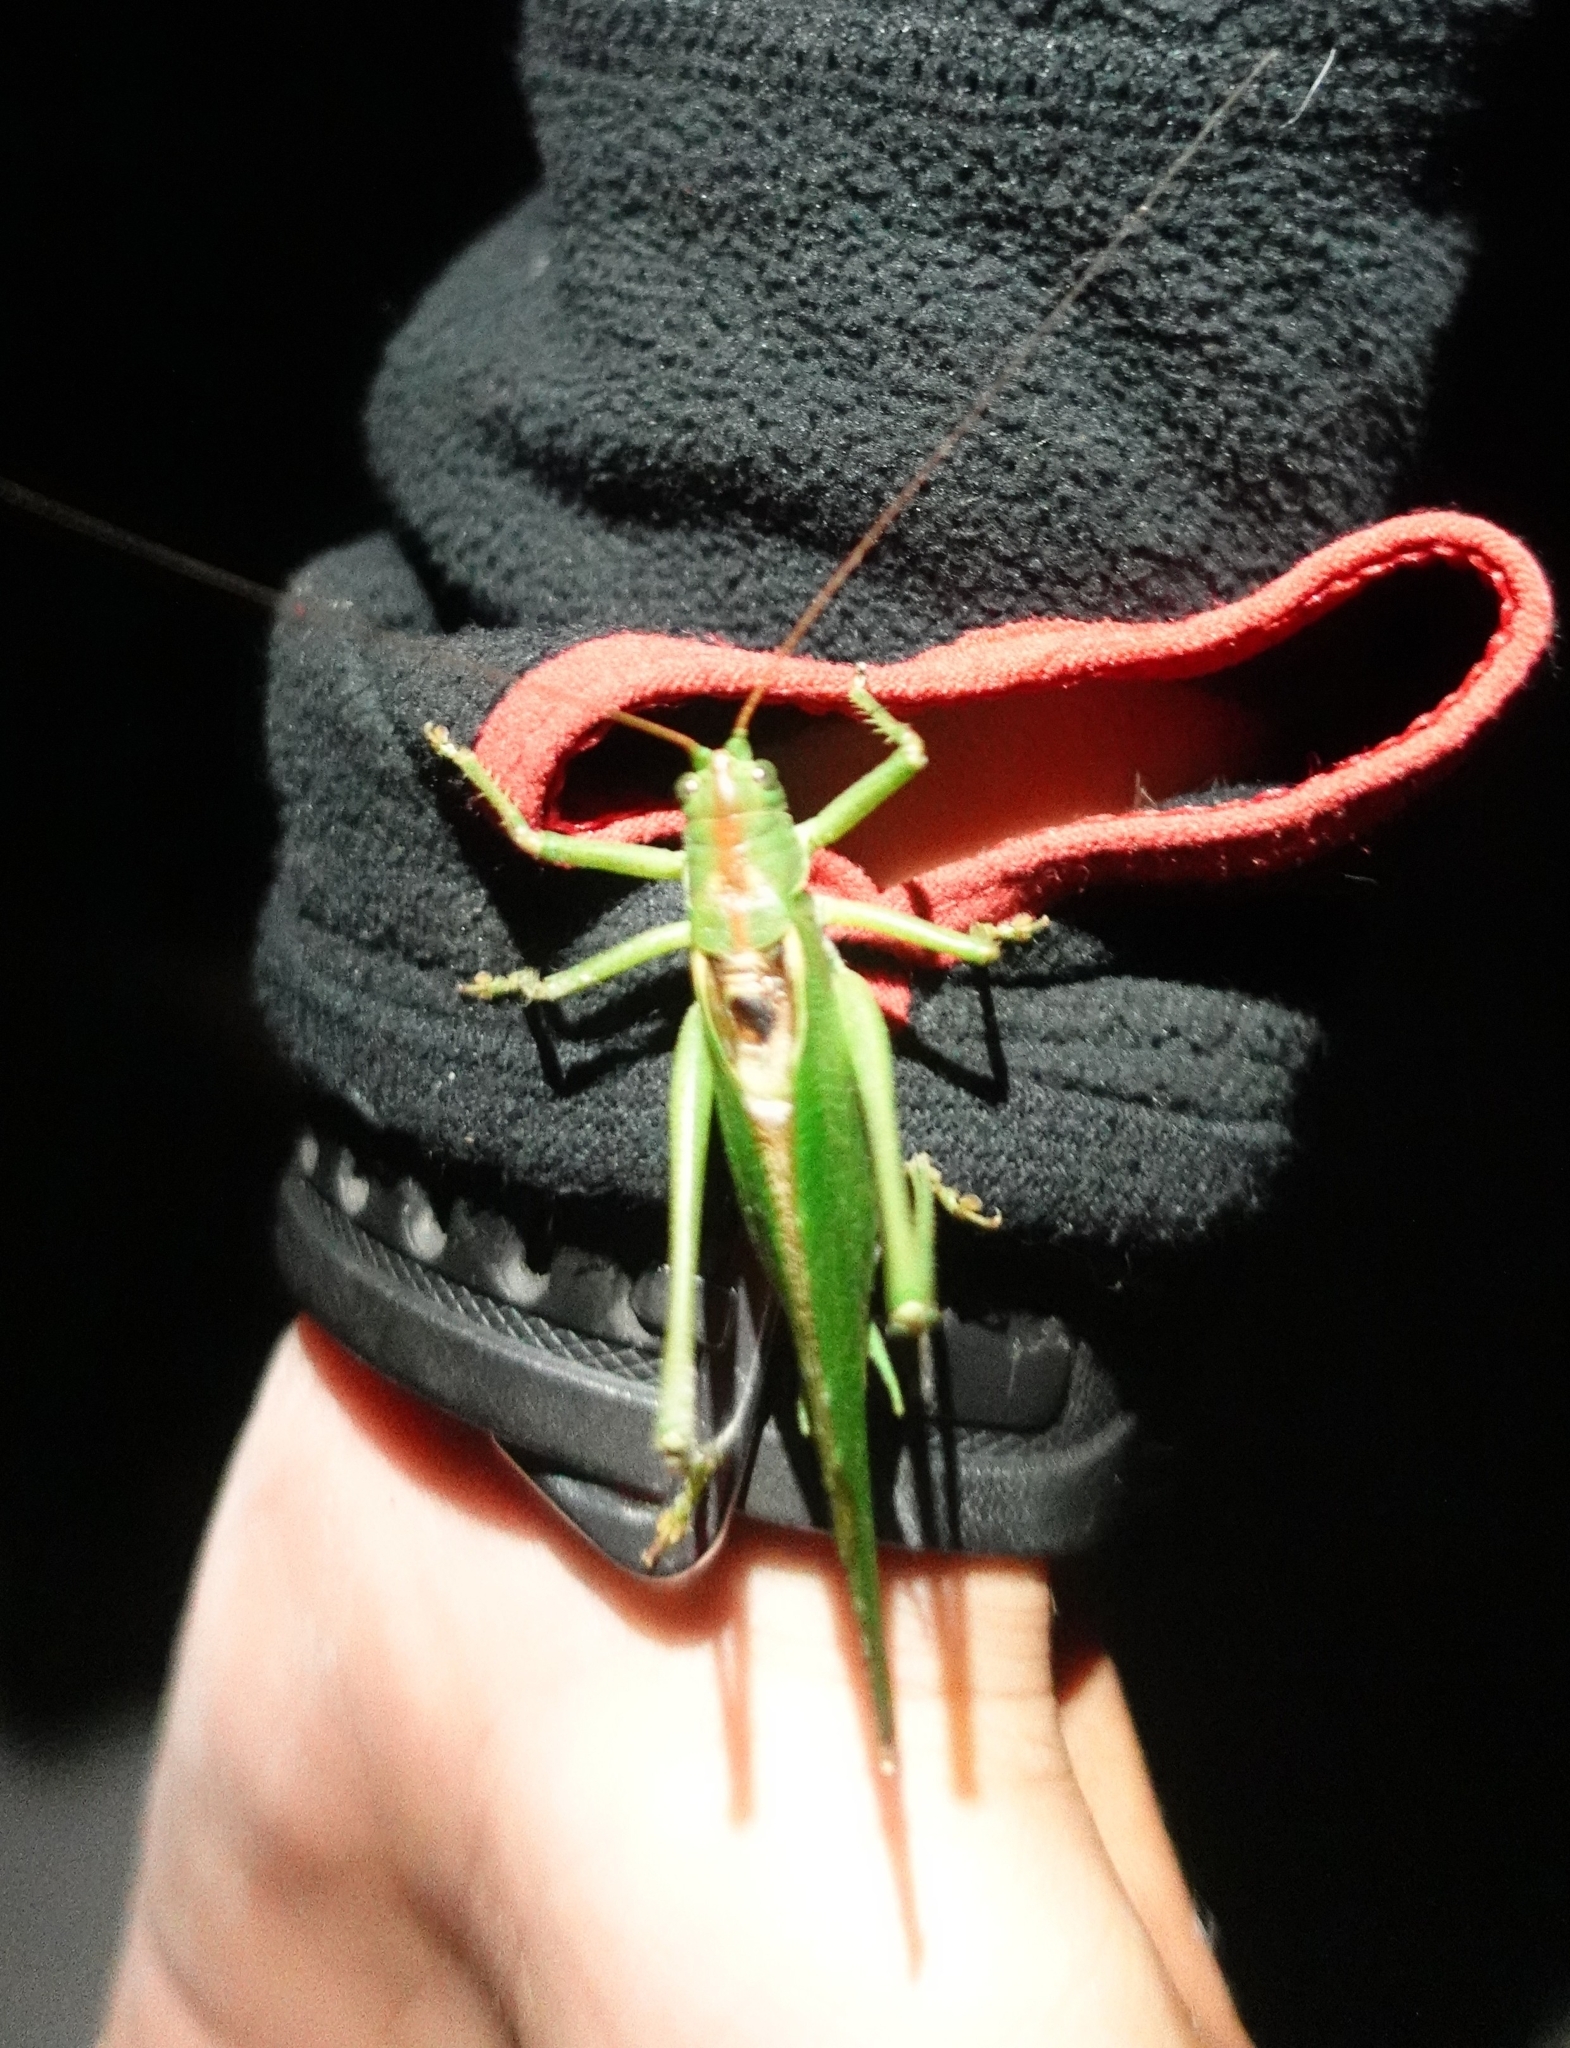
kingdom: Animalia
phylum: Arthropoda
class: Insecta
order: Orthoptera
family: Tettigoniidae
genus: Tettigonia
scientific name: Tettigonia viridissima
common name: Great green bush-cricket
